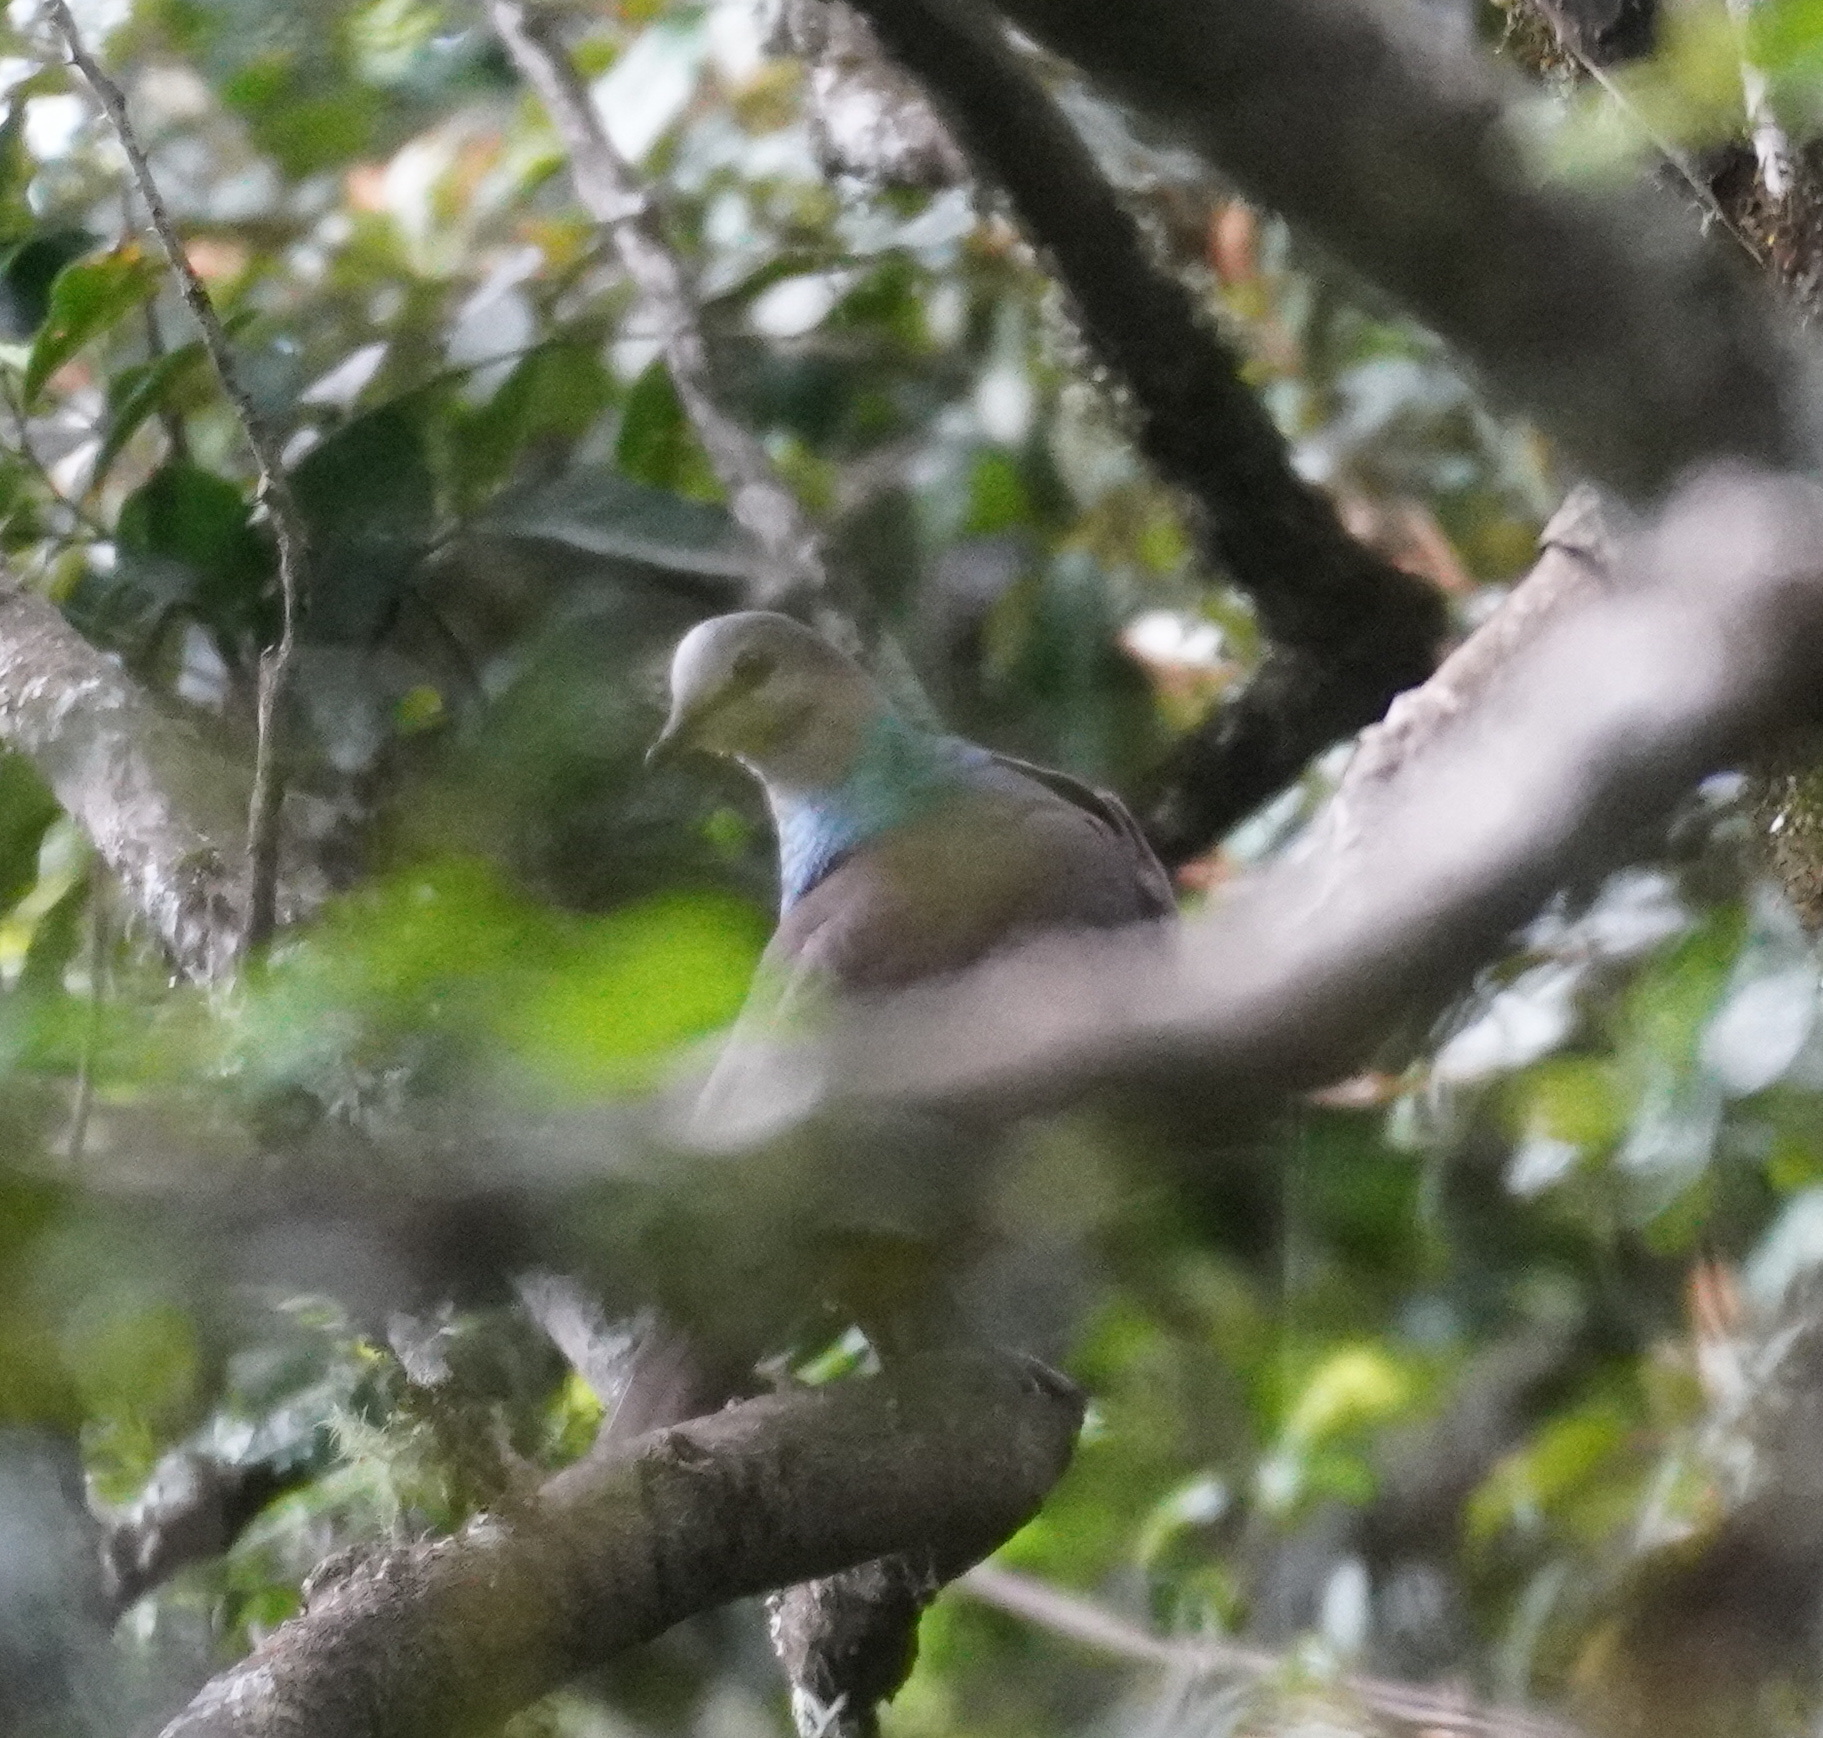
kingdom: Animalia
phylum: Chordata
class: Aves
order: Columbiformes
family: Columbidae
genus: Columba
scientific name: Columba larvata
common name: Lemon dove
